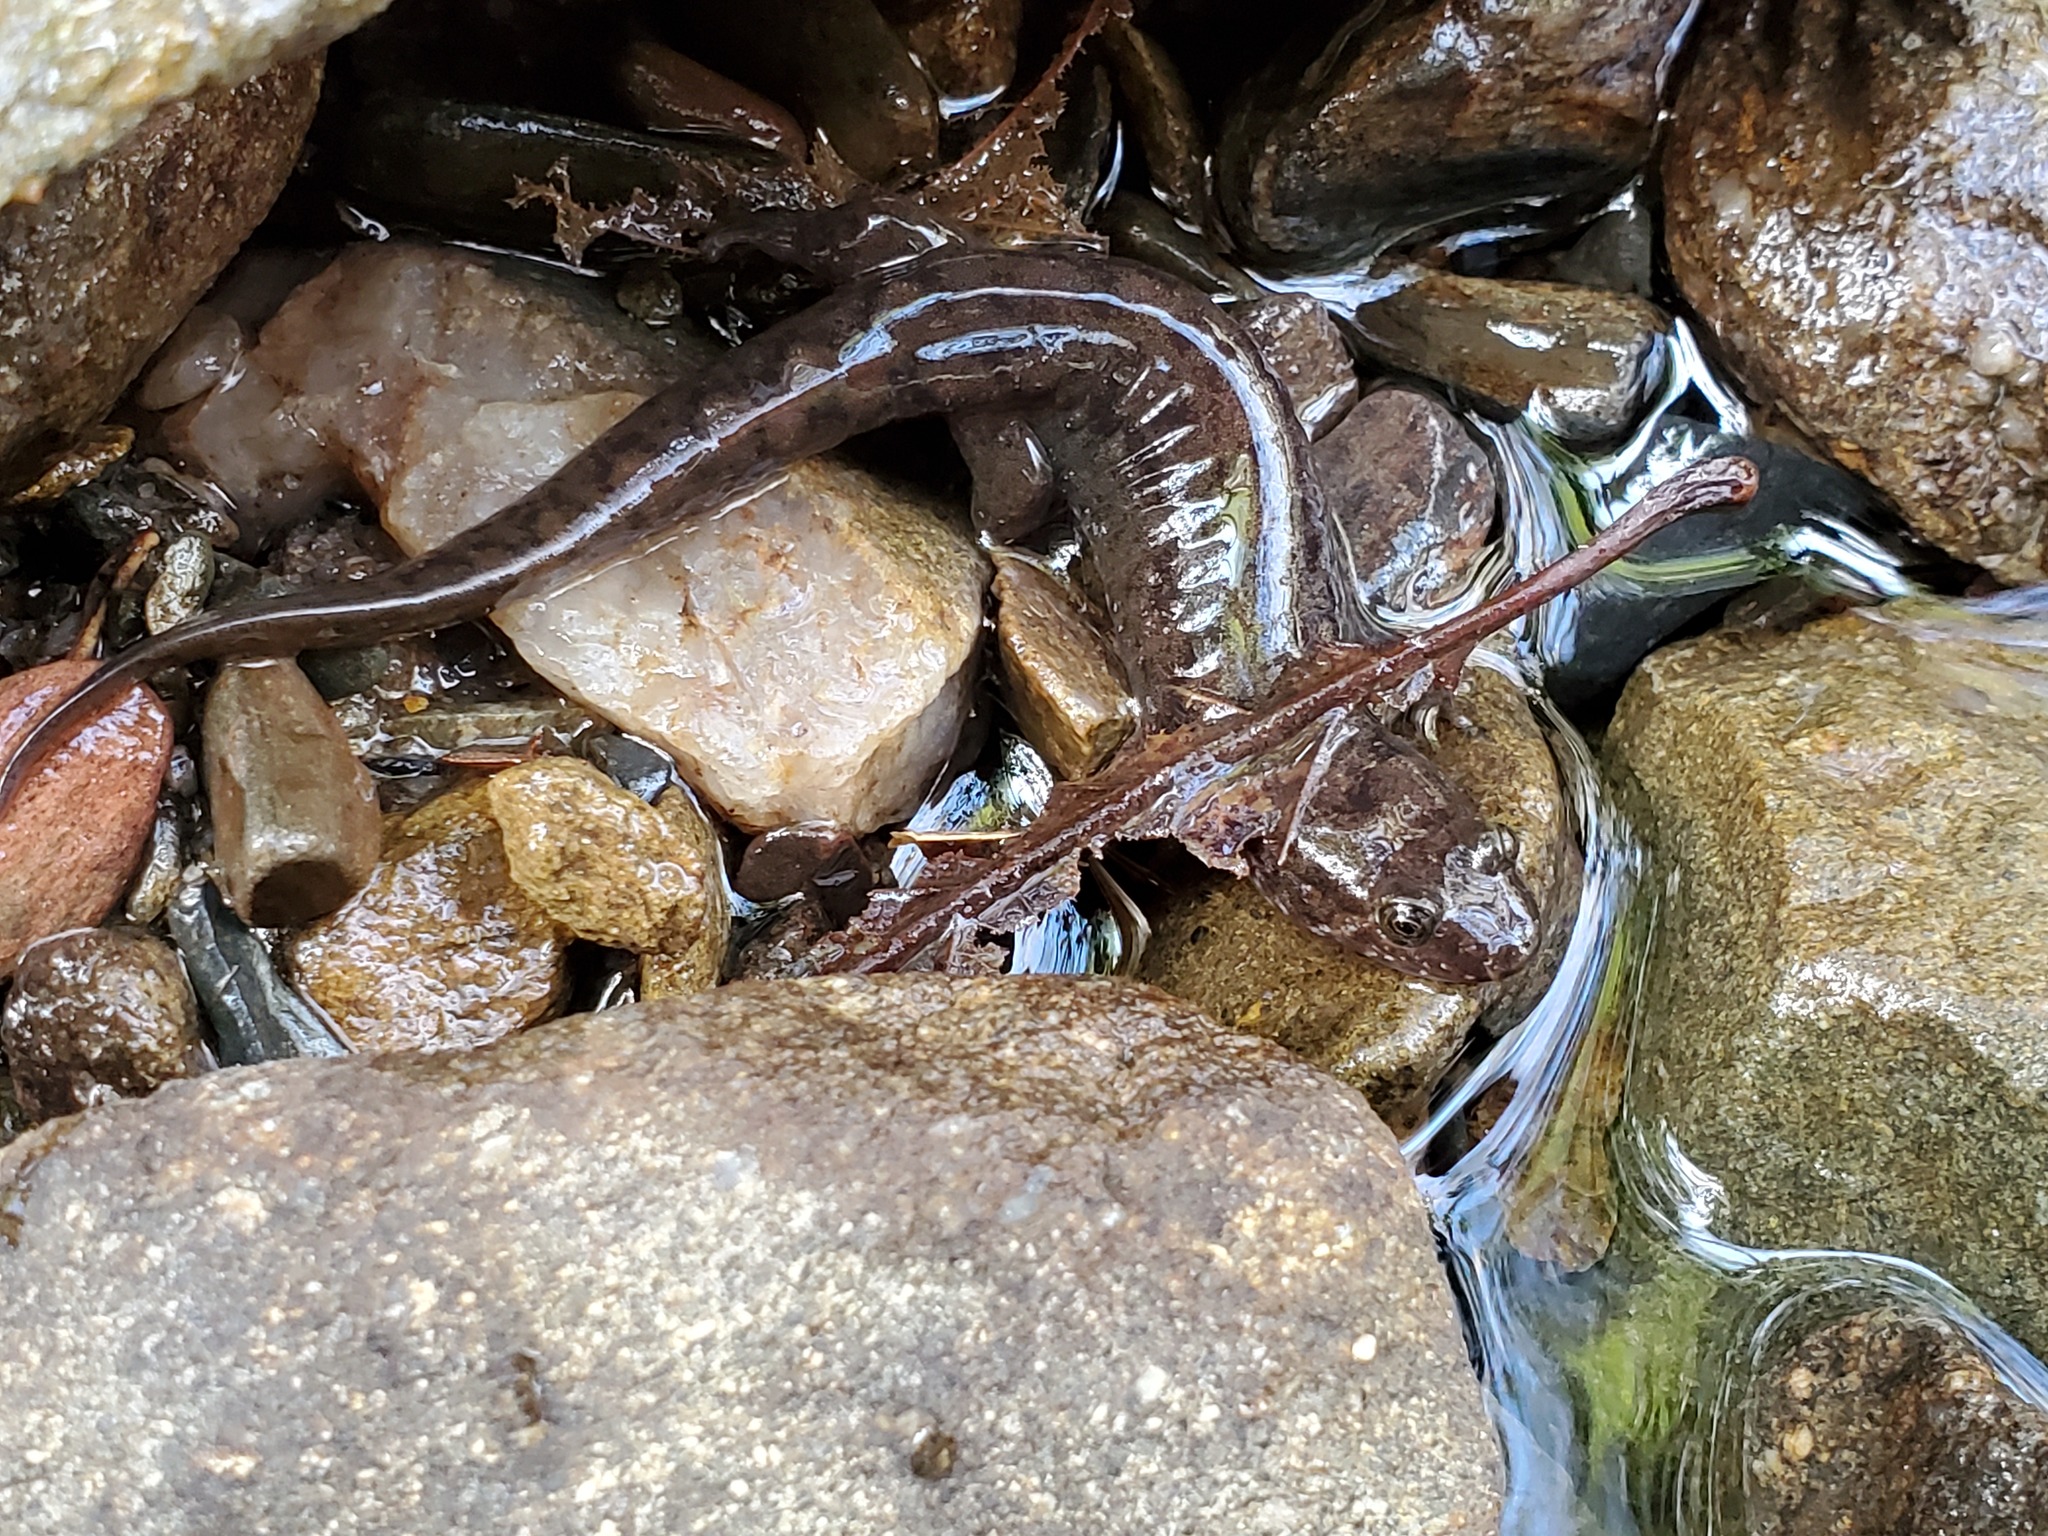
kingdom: Animalia
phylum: Chordata
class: Amphibia
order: Caudata
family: Plethodontidae
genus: Desmognathus
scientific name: Desmognathus monticola
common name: Seal salamander
